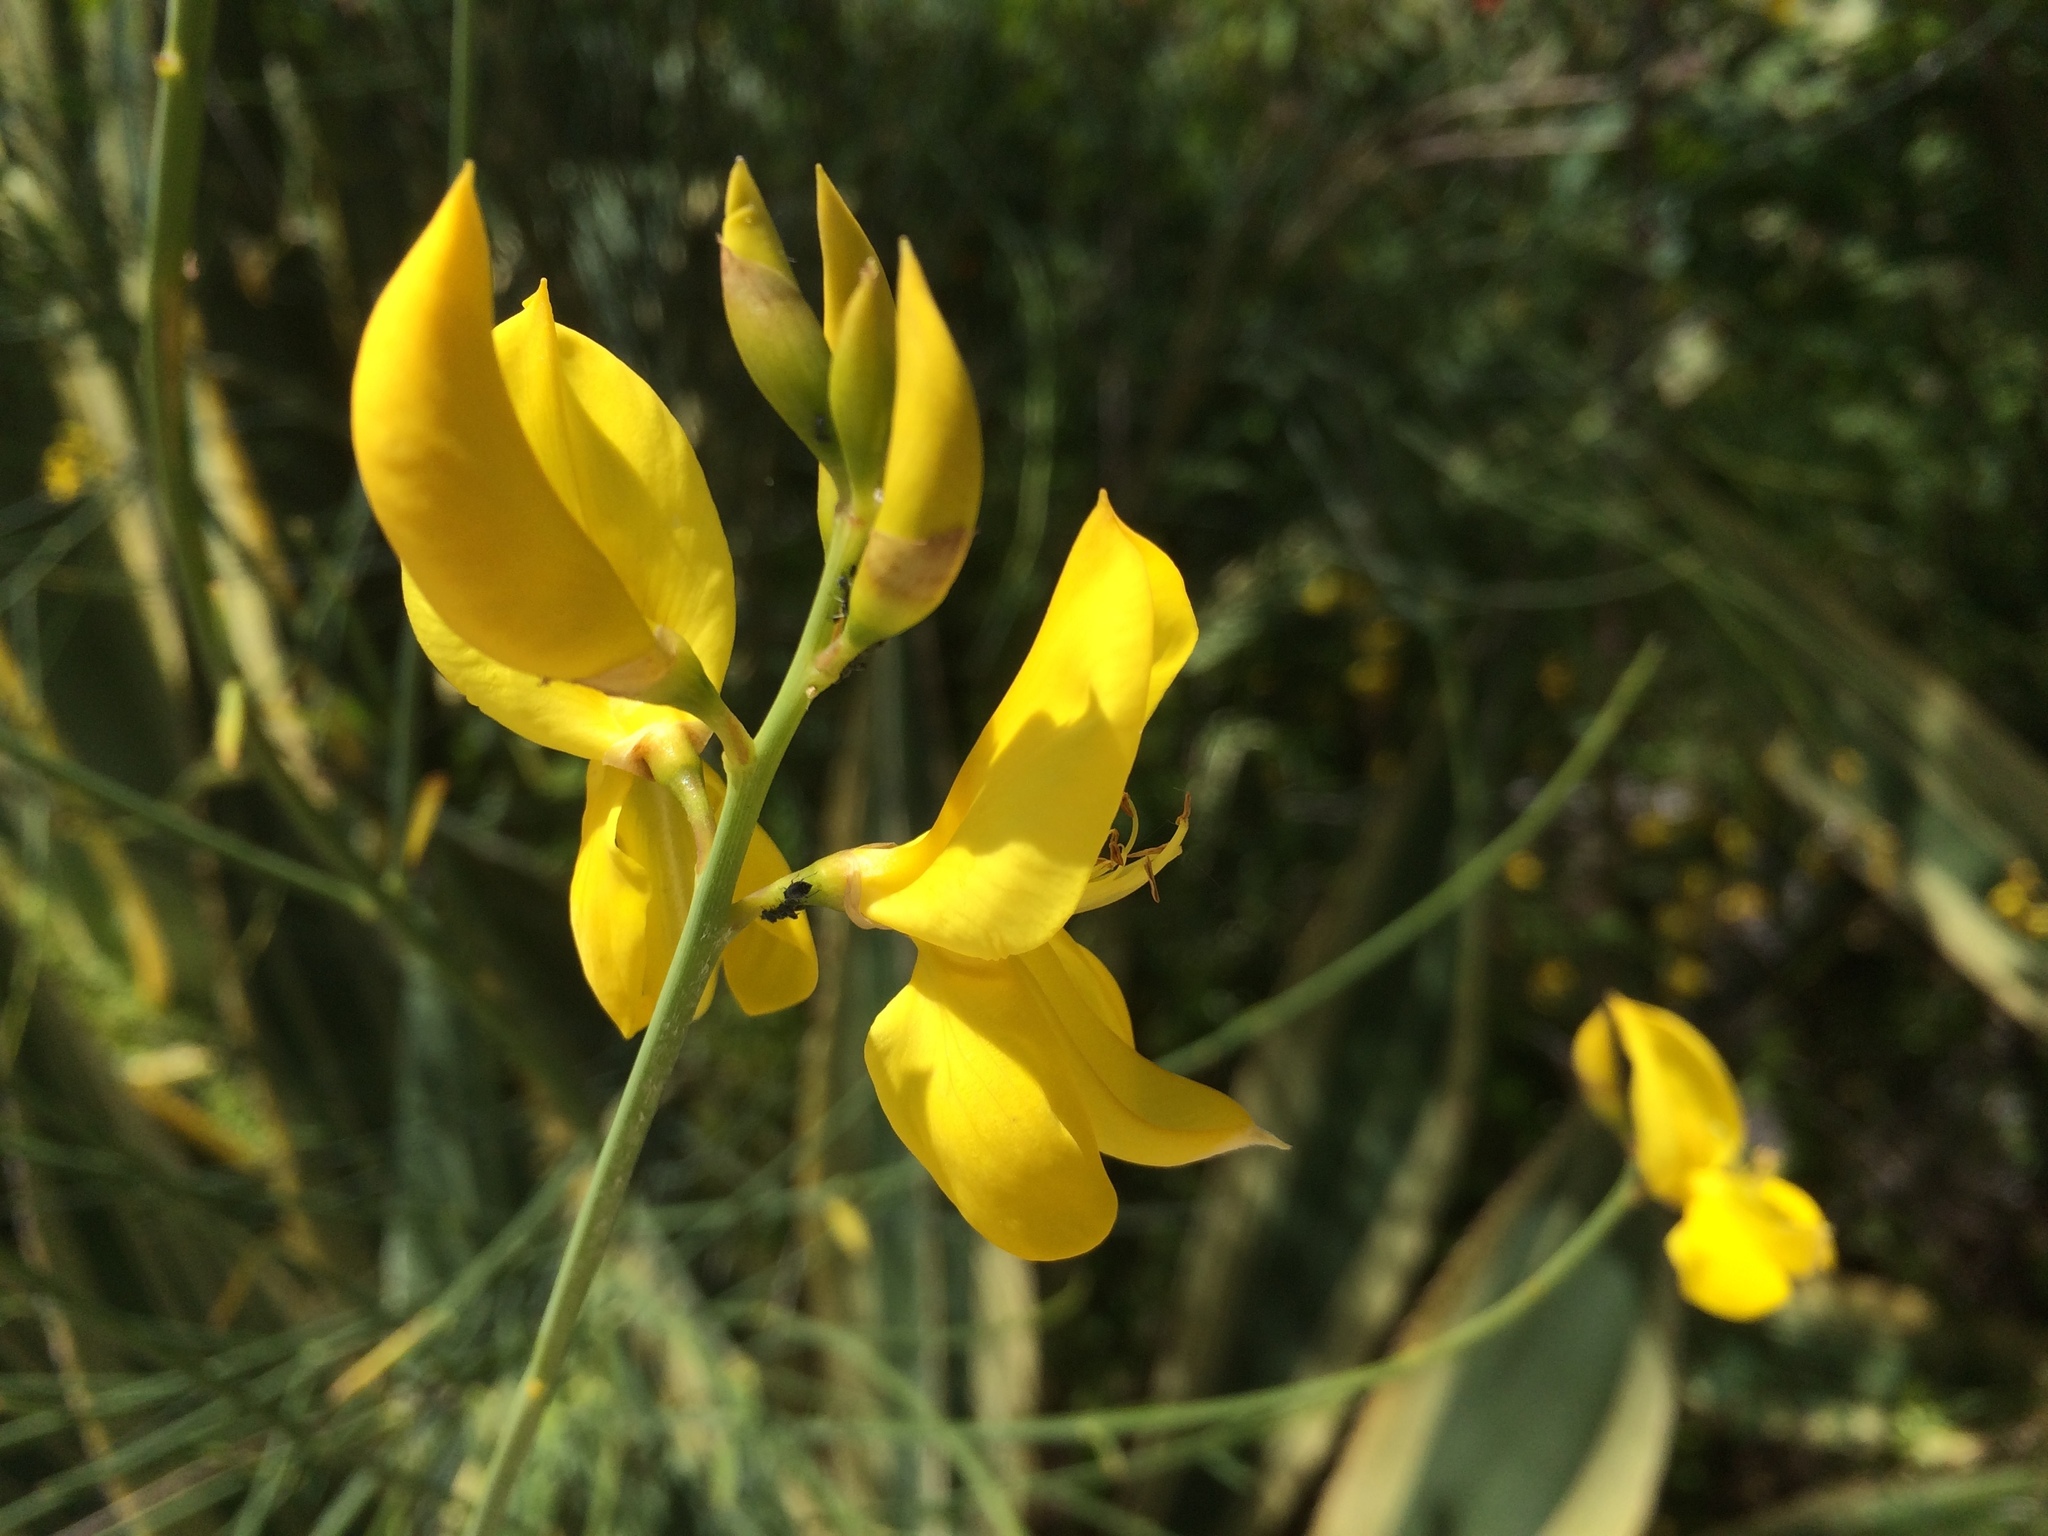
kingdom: Plantae
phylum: Tracheophyta
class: Magnoliopsida
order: Fabales
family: Fabaceae
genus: Spartium
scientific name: Spartium junceum
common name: Spanish broom
